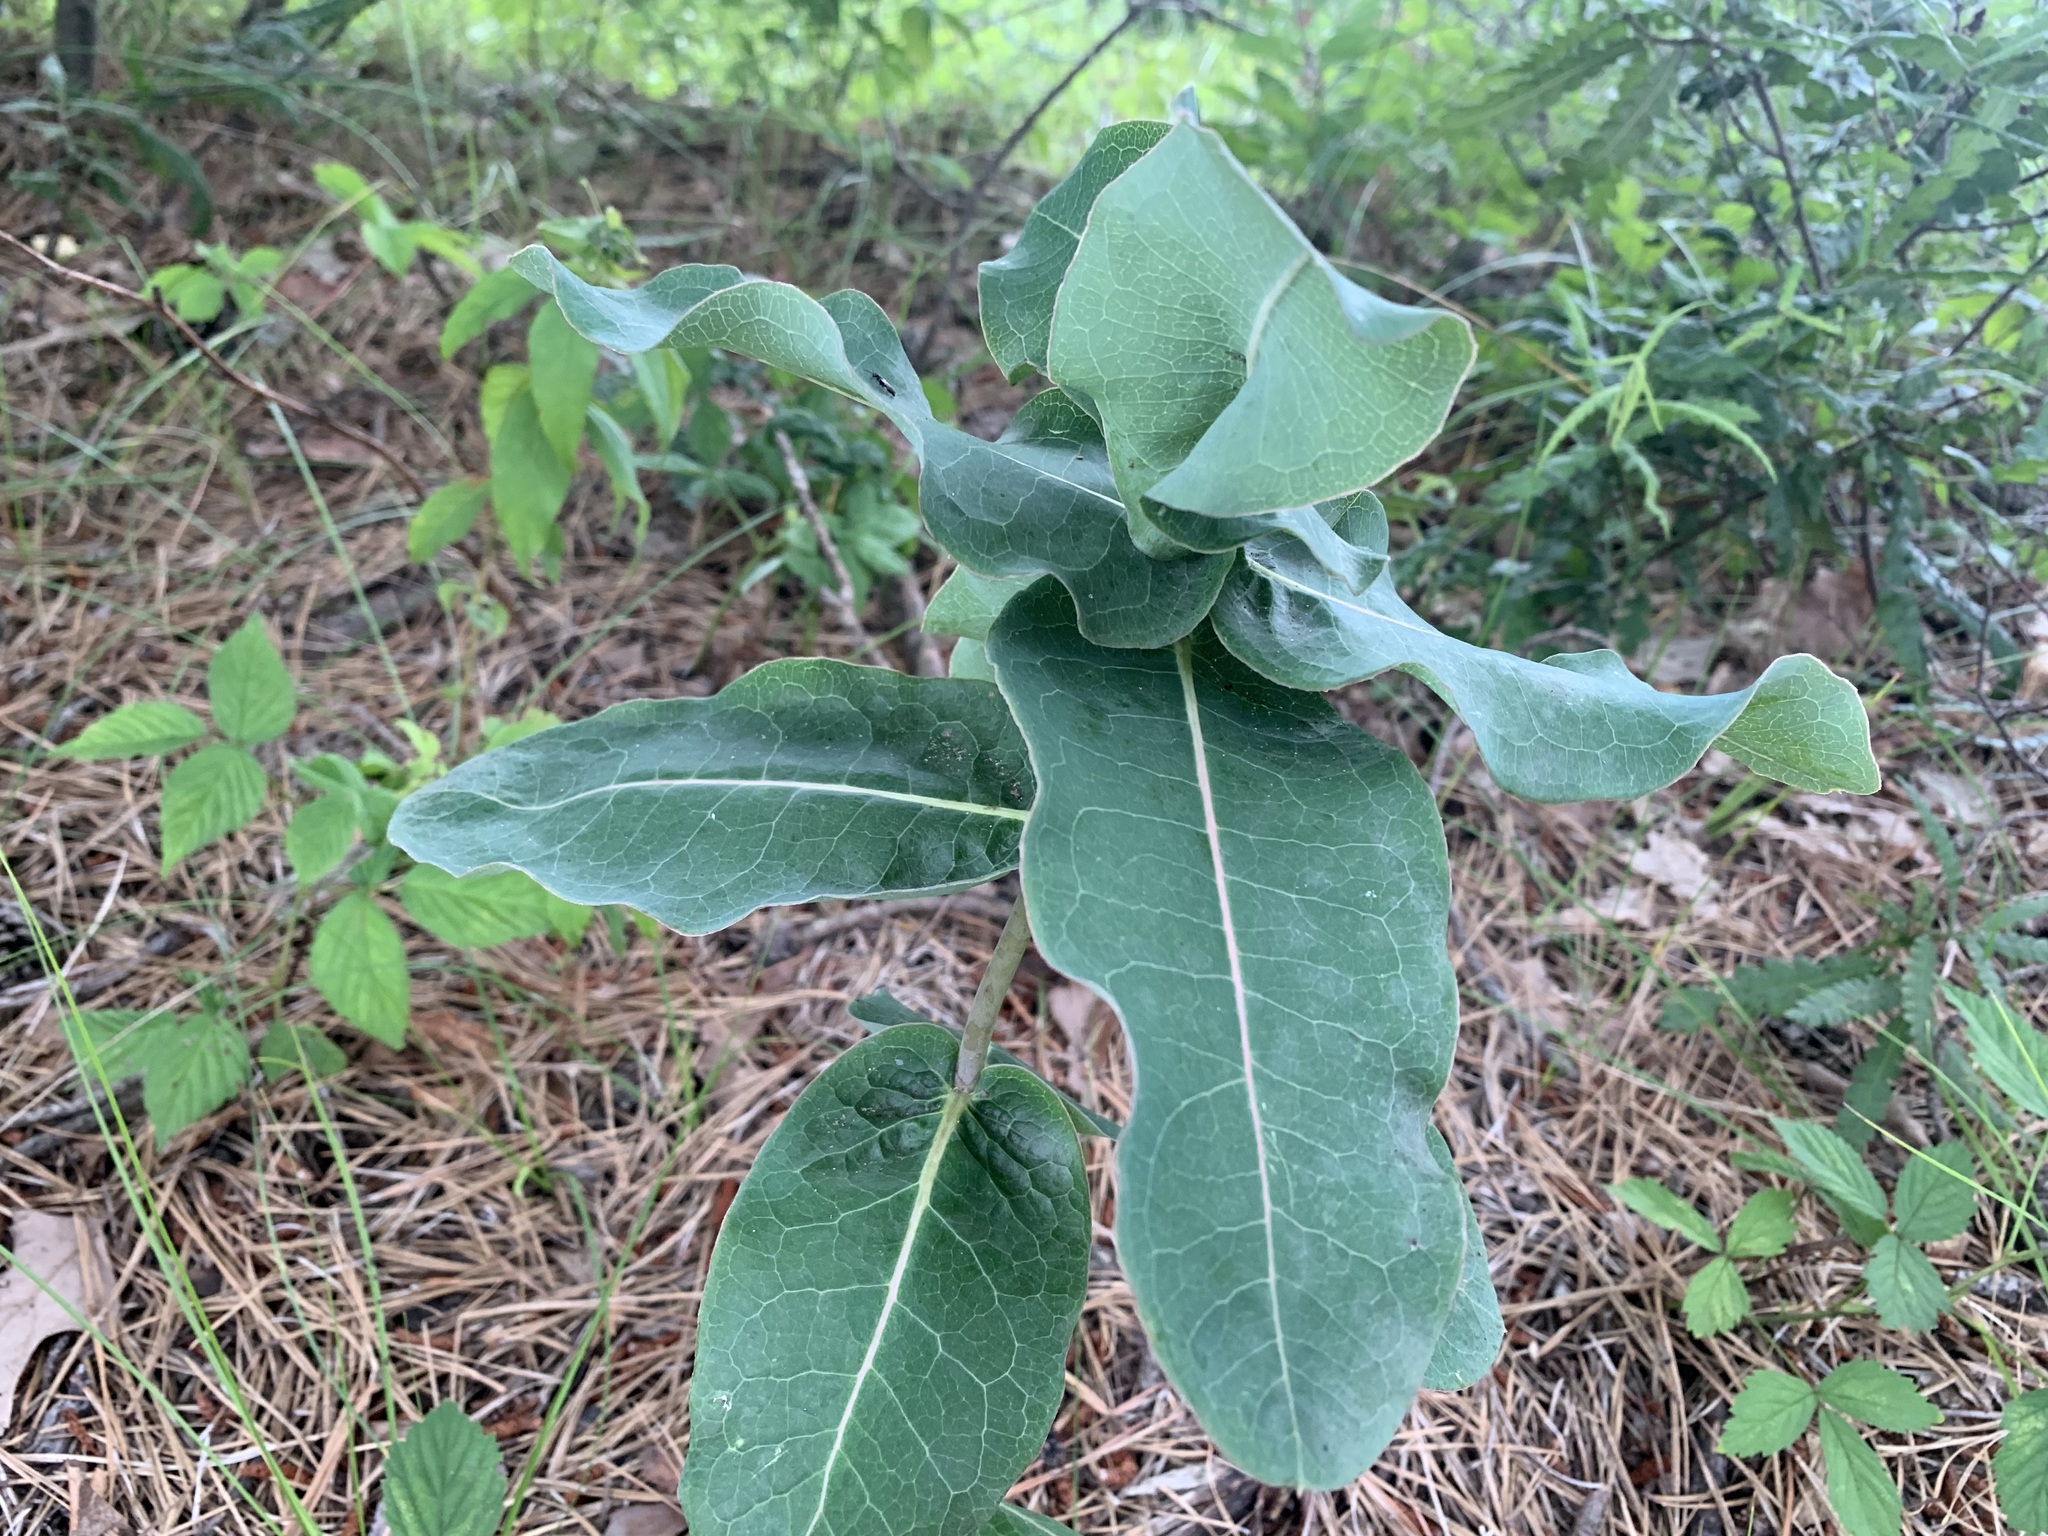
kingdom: Plantae
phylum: Tracheophyta
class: Magnoliopsida
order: Gentianales
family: Apocynaceae
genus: Asclepias
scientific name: Asclepias amplexicaulis
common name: Blunt-leaf milkweed
